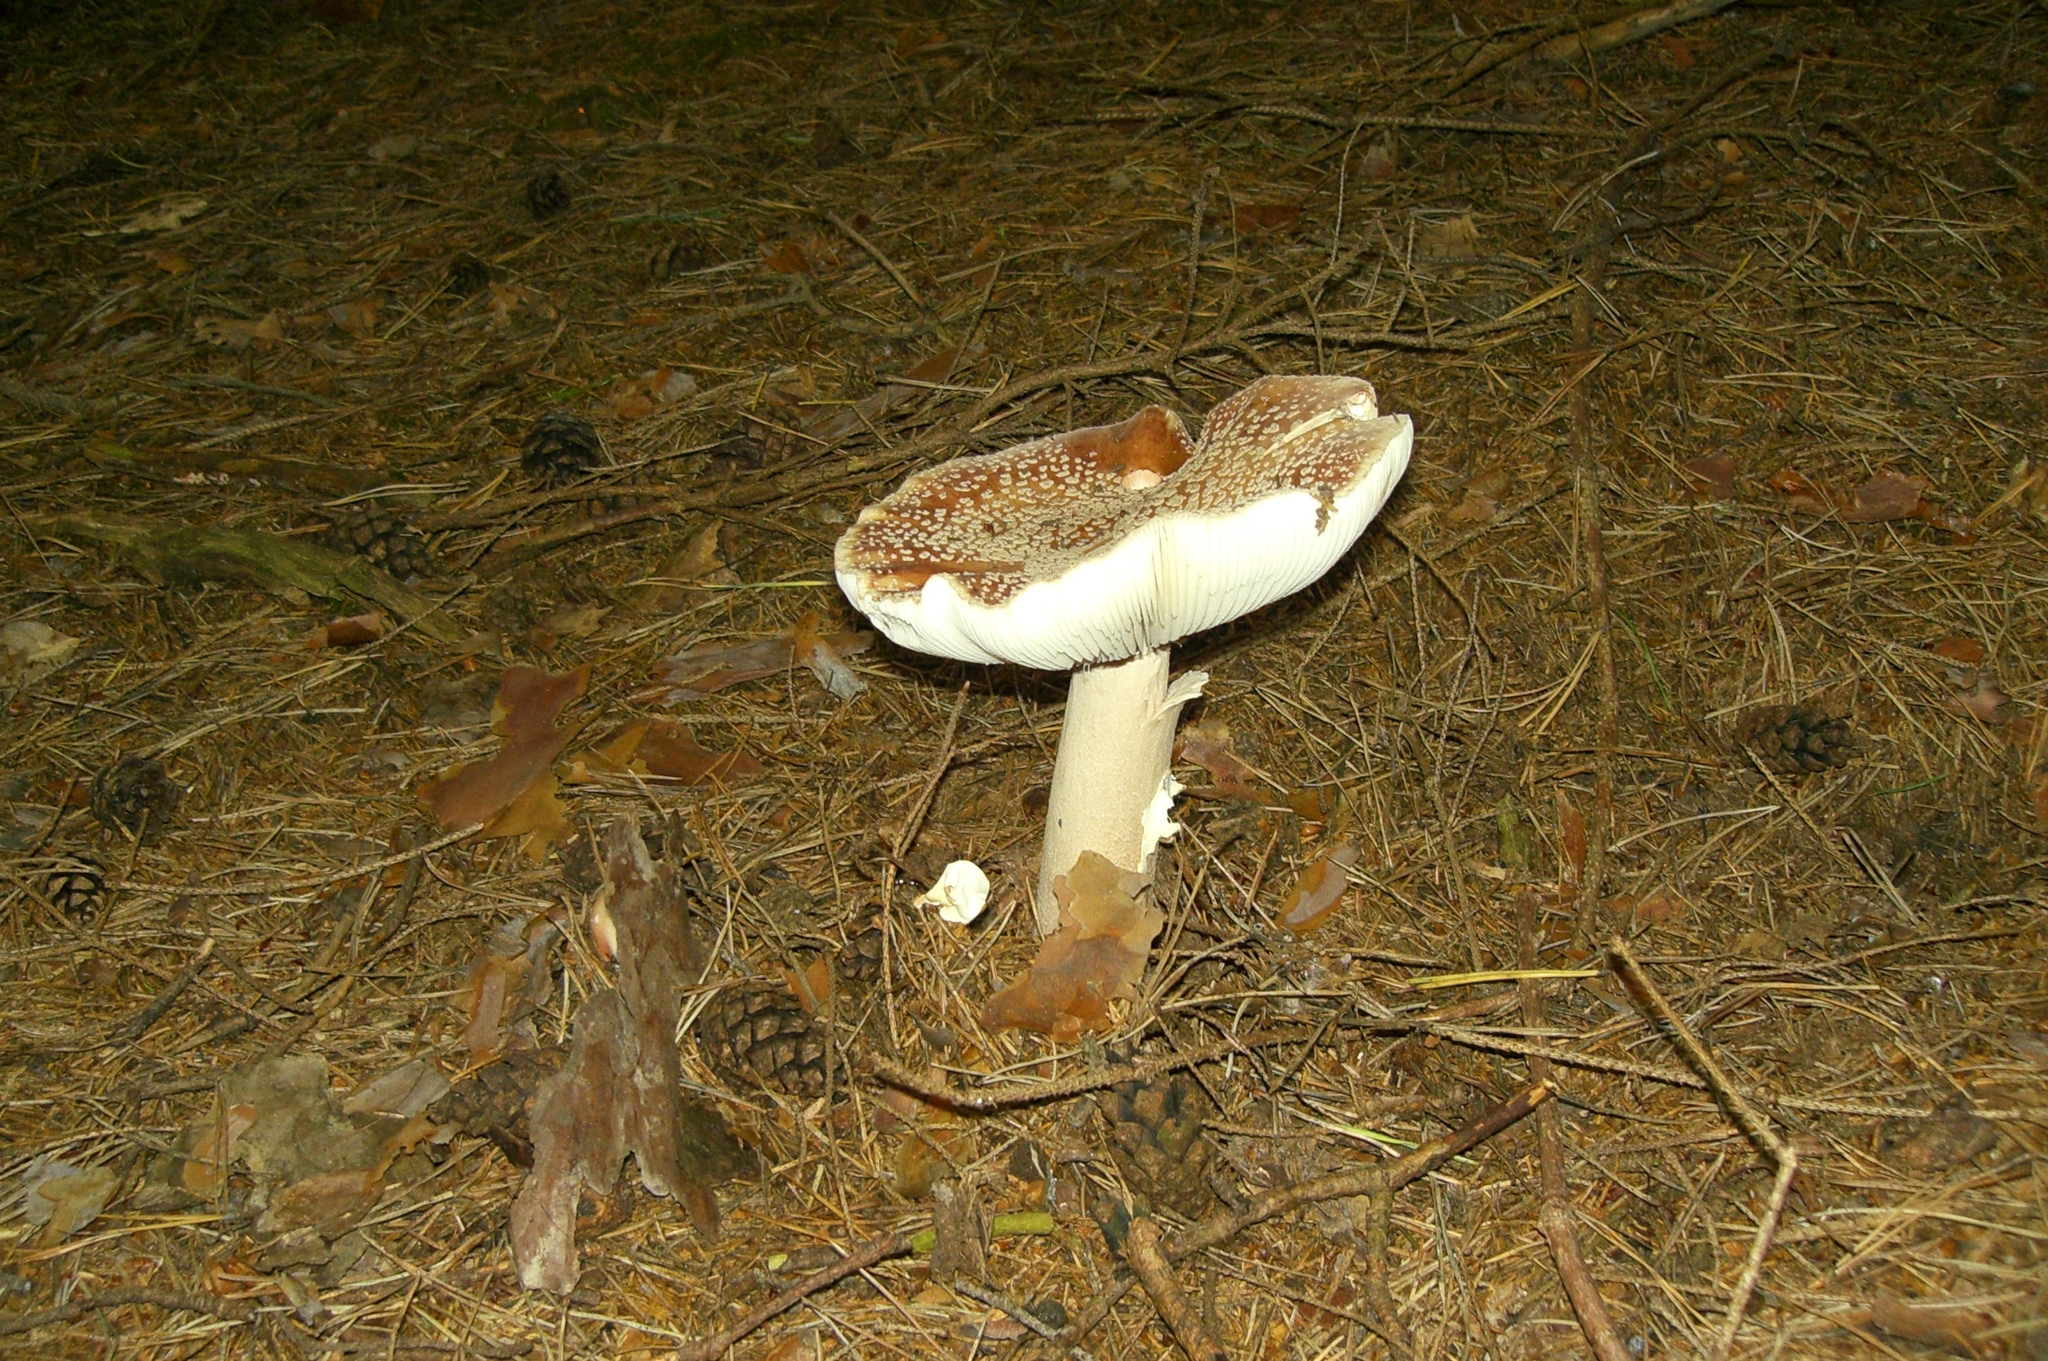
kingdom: Fungi
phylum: Basidiomycota
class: Agaricomycetes
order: Agaricales
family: Amanitaceae
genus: Amanita
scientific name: Amanita regalis
